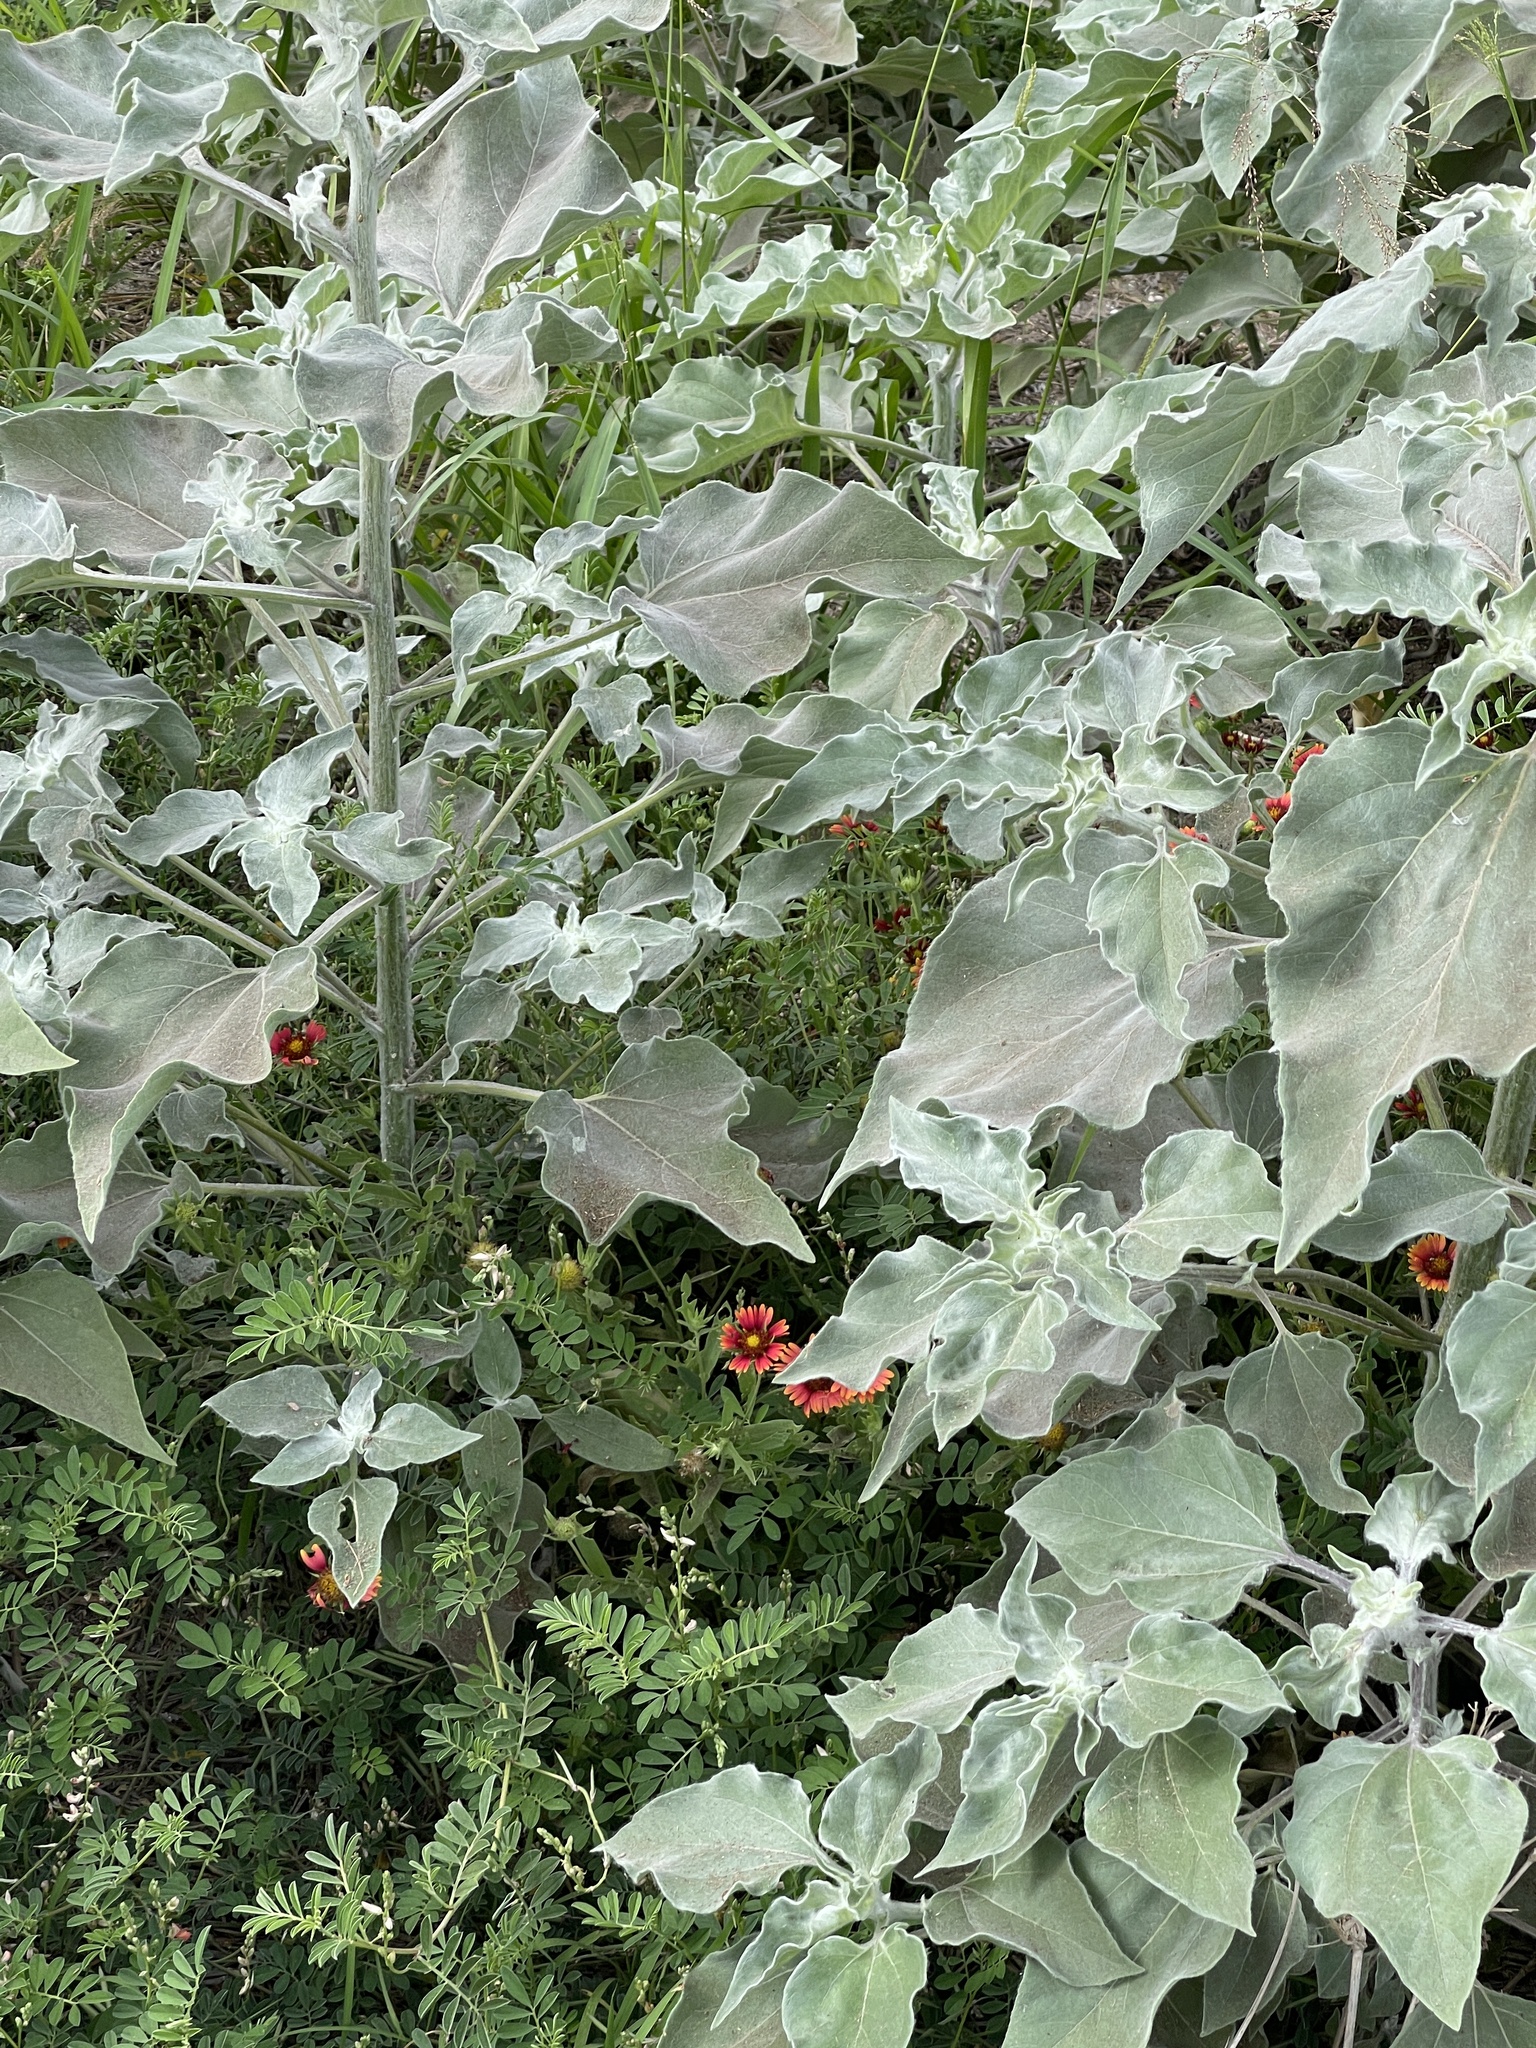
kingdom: Plantae
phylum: Tracheophyta
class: Magnoliopsida
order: Asterales
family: Asteraceae
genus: Gaillardia
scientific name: Gaillardia pulchella
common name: Firewheel
